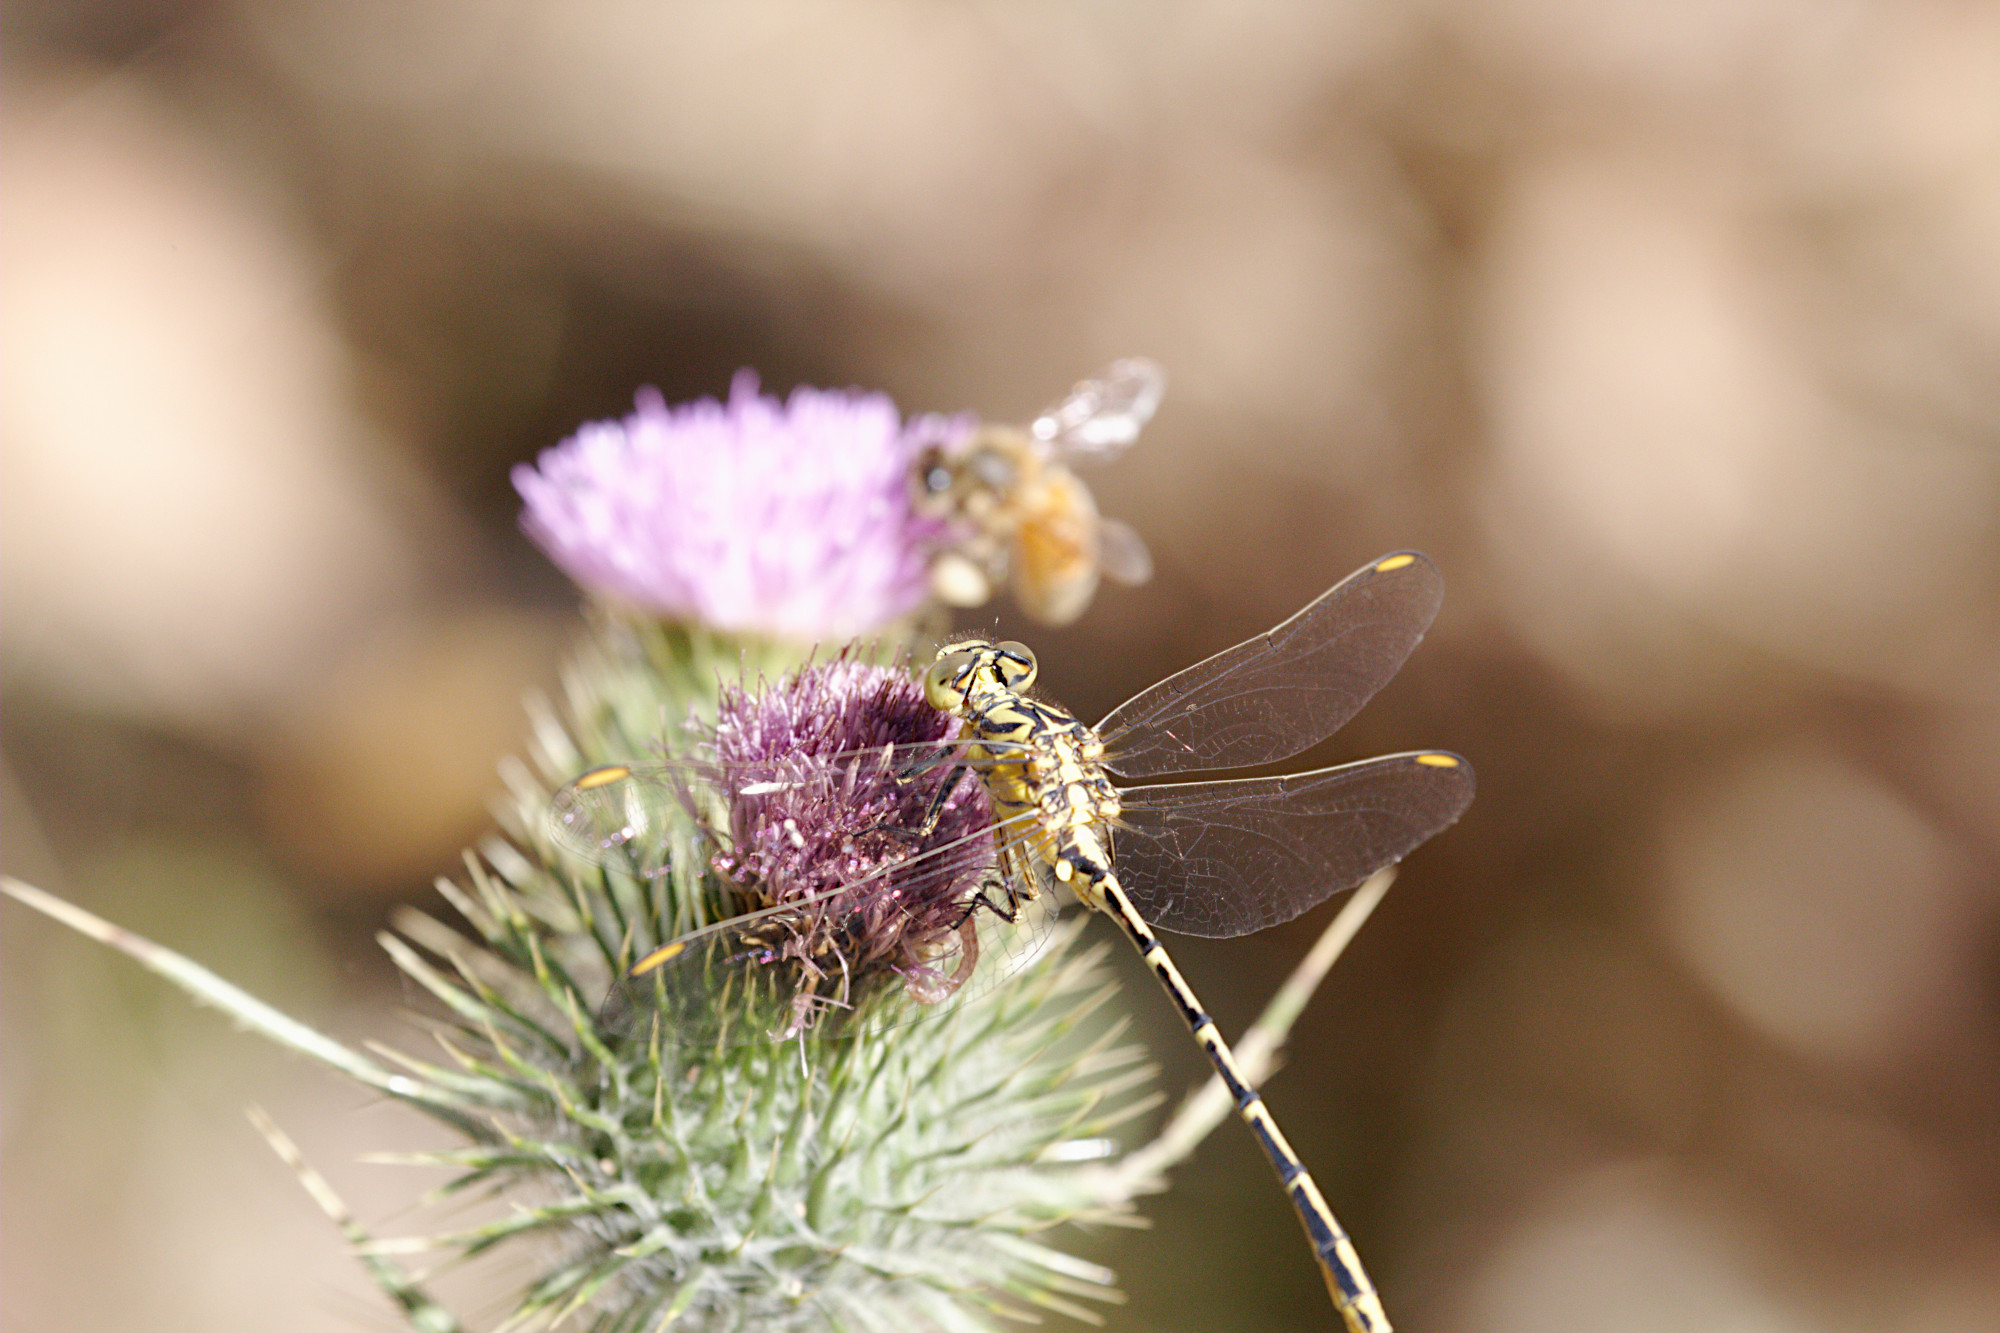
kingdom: Animalia
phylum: Arthropoda
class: Insecta
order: Odonata
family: Gomphidae
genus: Austrogomphus
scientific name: Austrogomphus guerini
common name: Yellow-striped hunter
